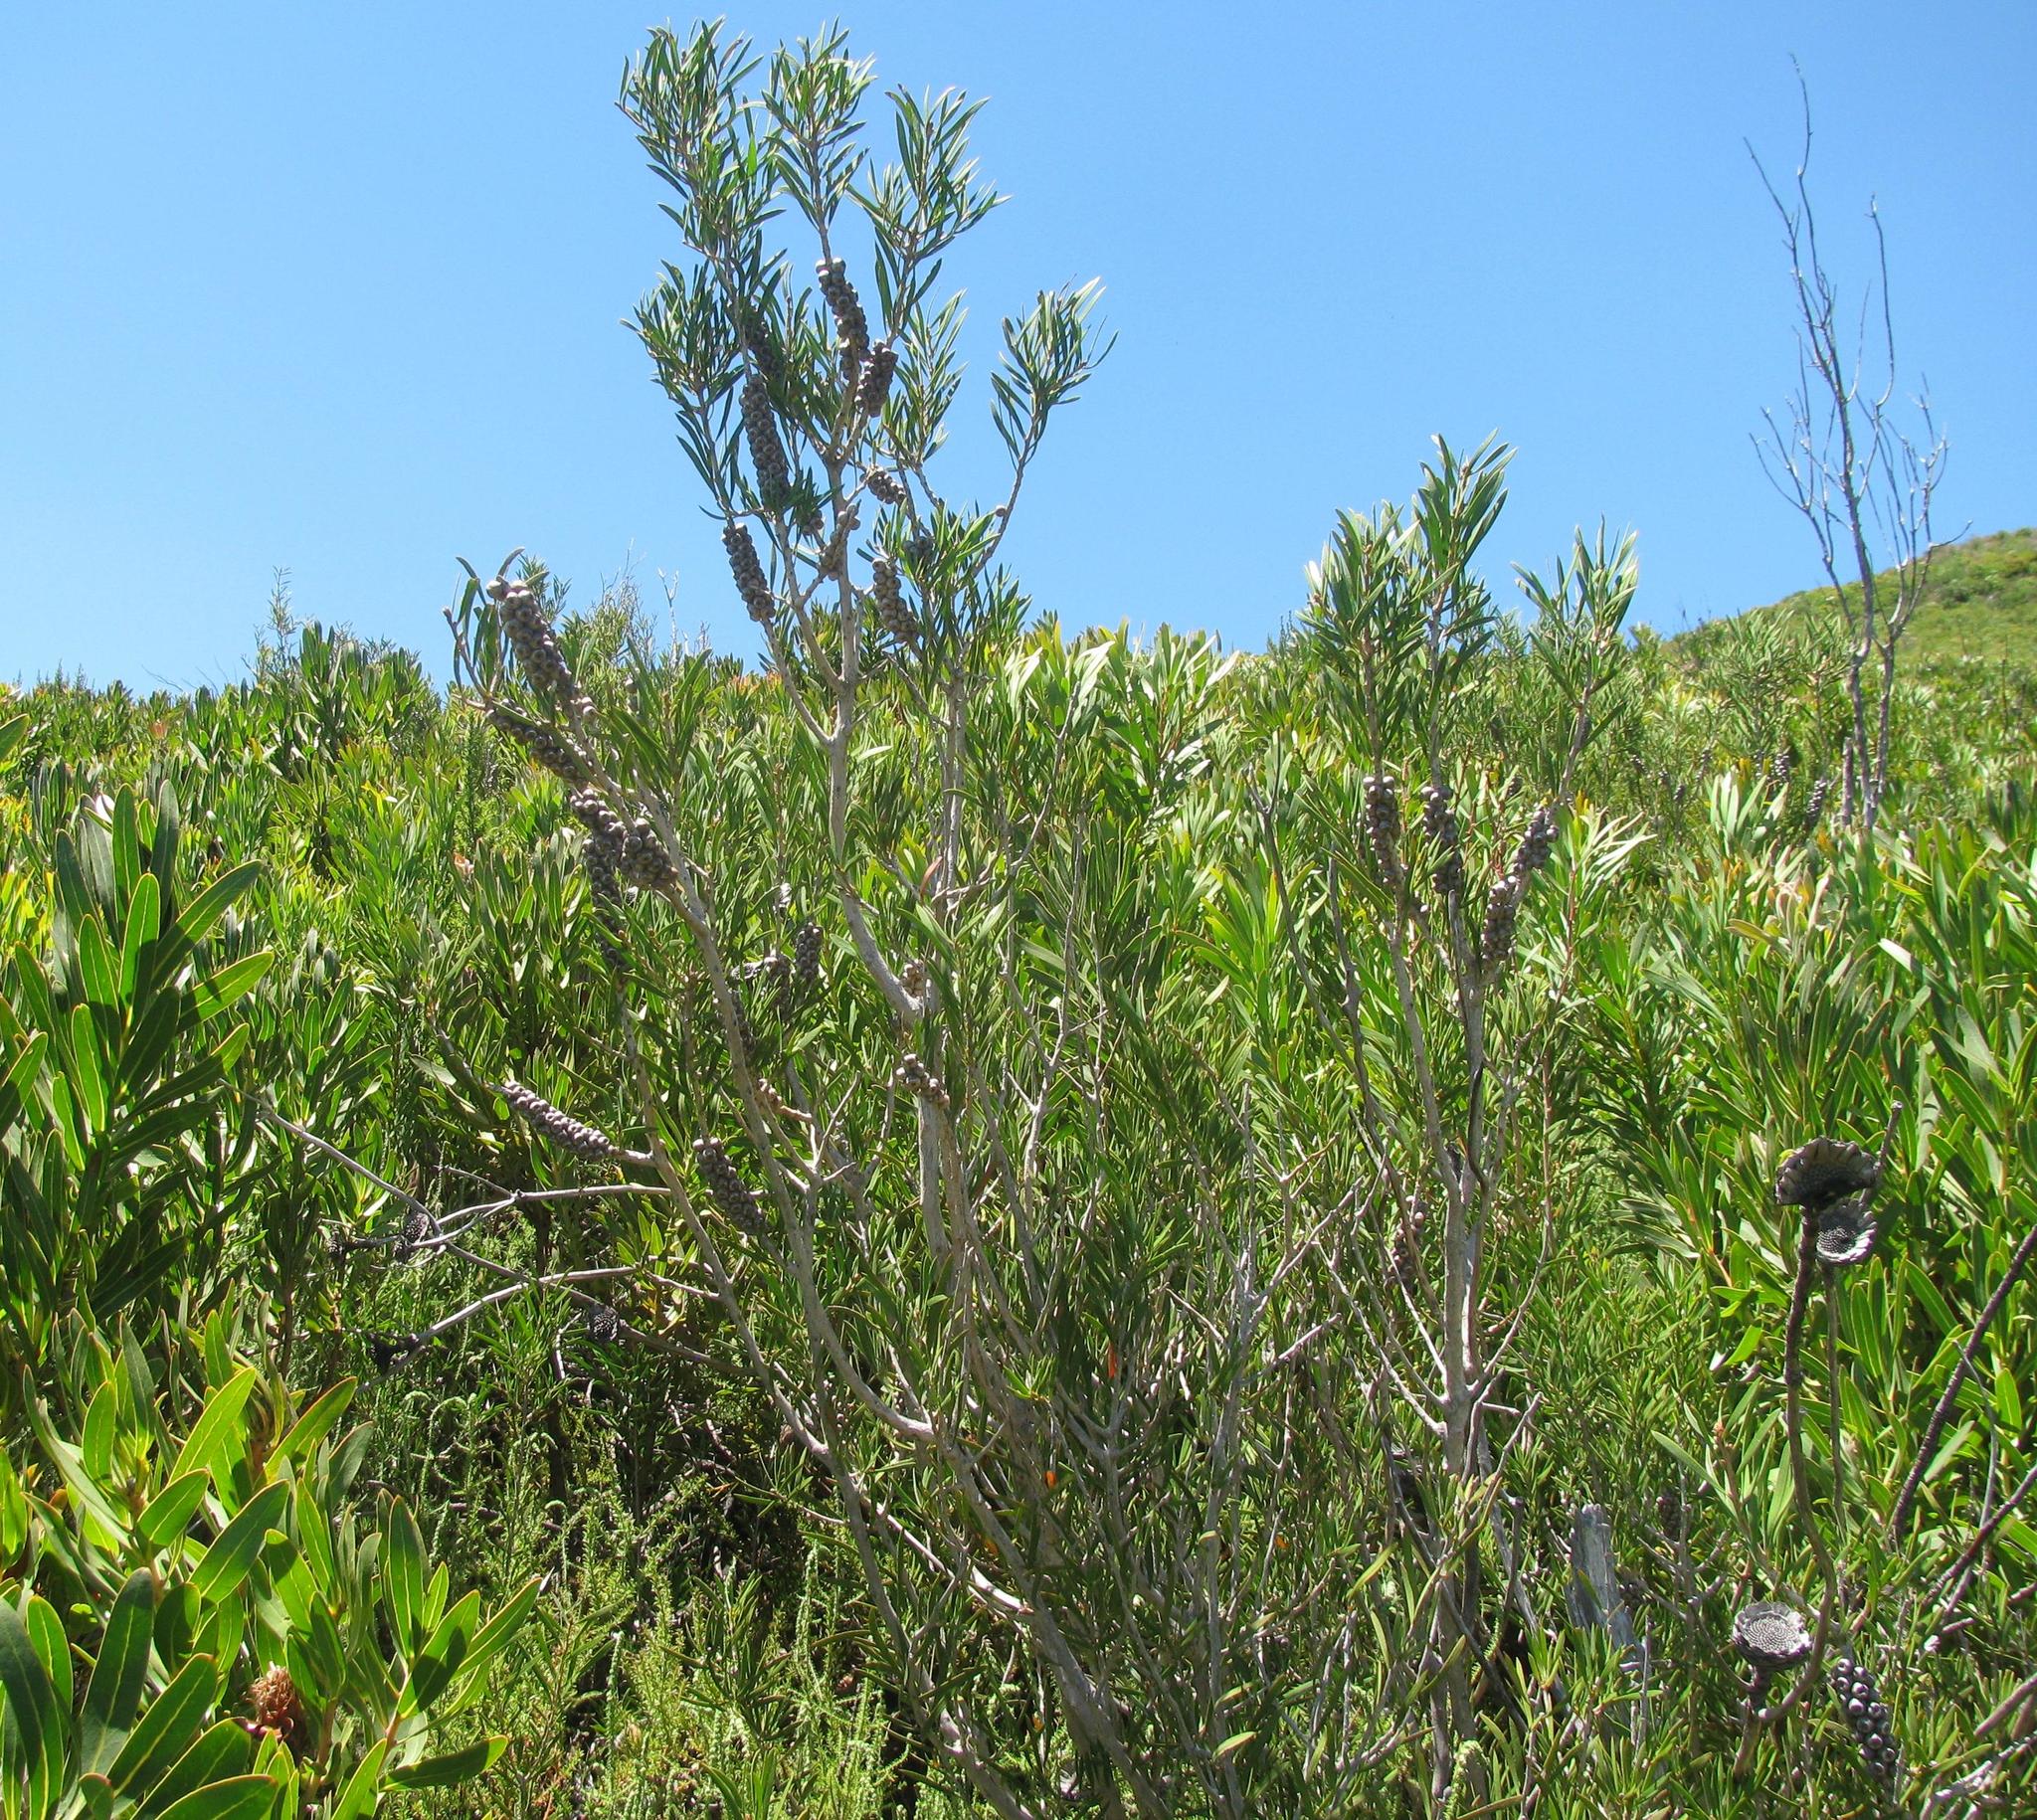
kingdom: Plantae
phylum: Tracheophyta
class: Magnoliopsida
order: Myrtales
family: Myrtaceae
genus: Callistemon
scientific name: Callistemon rugulosus
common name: Scarlet bottlebrush
